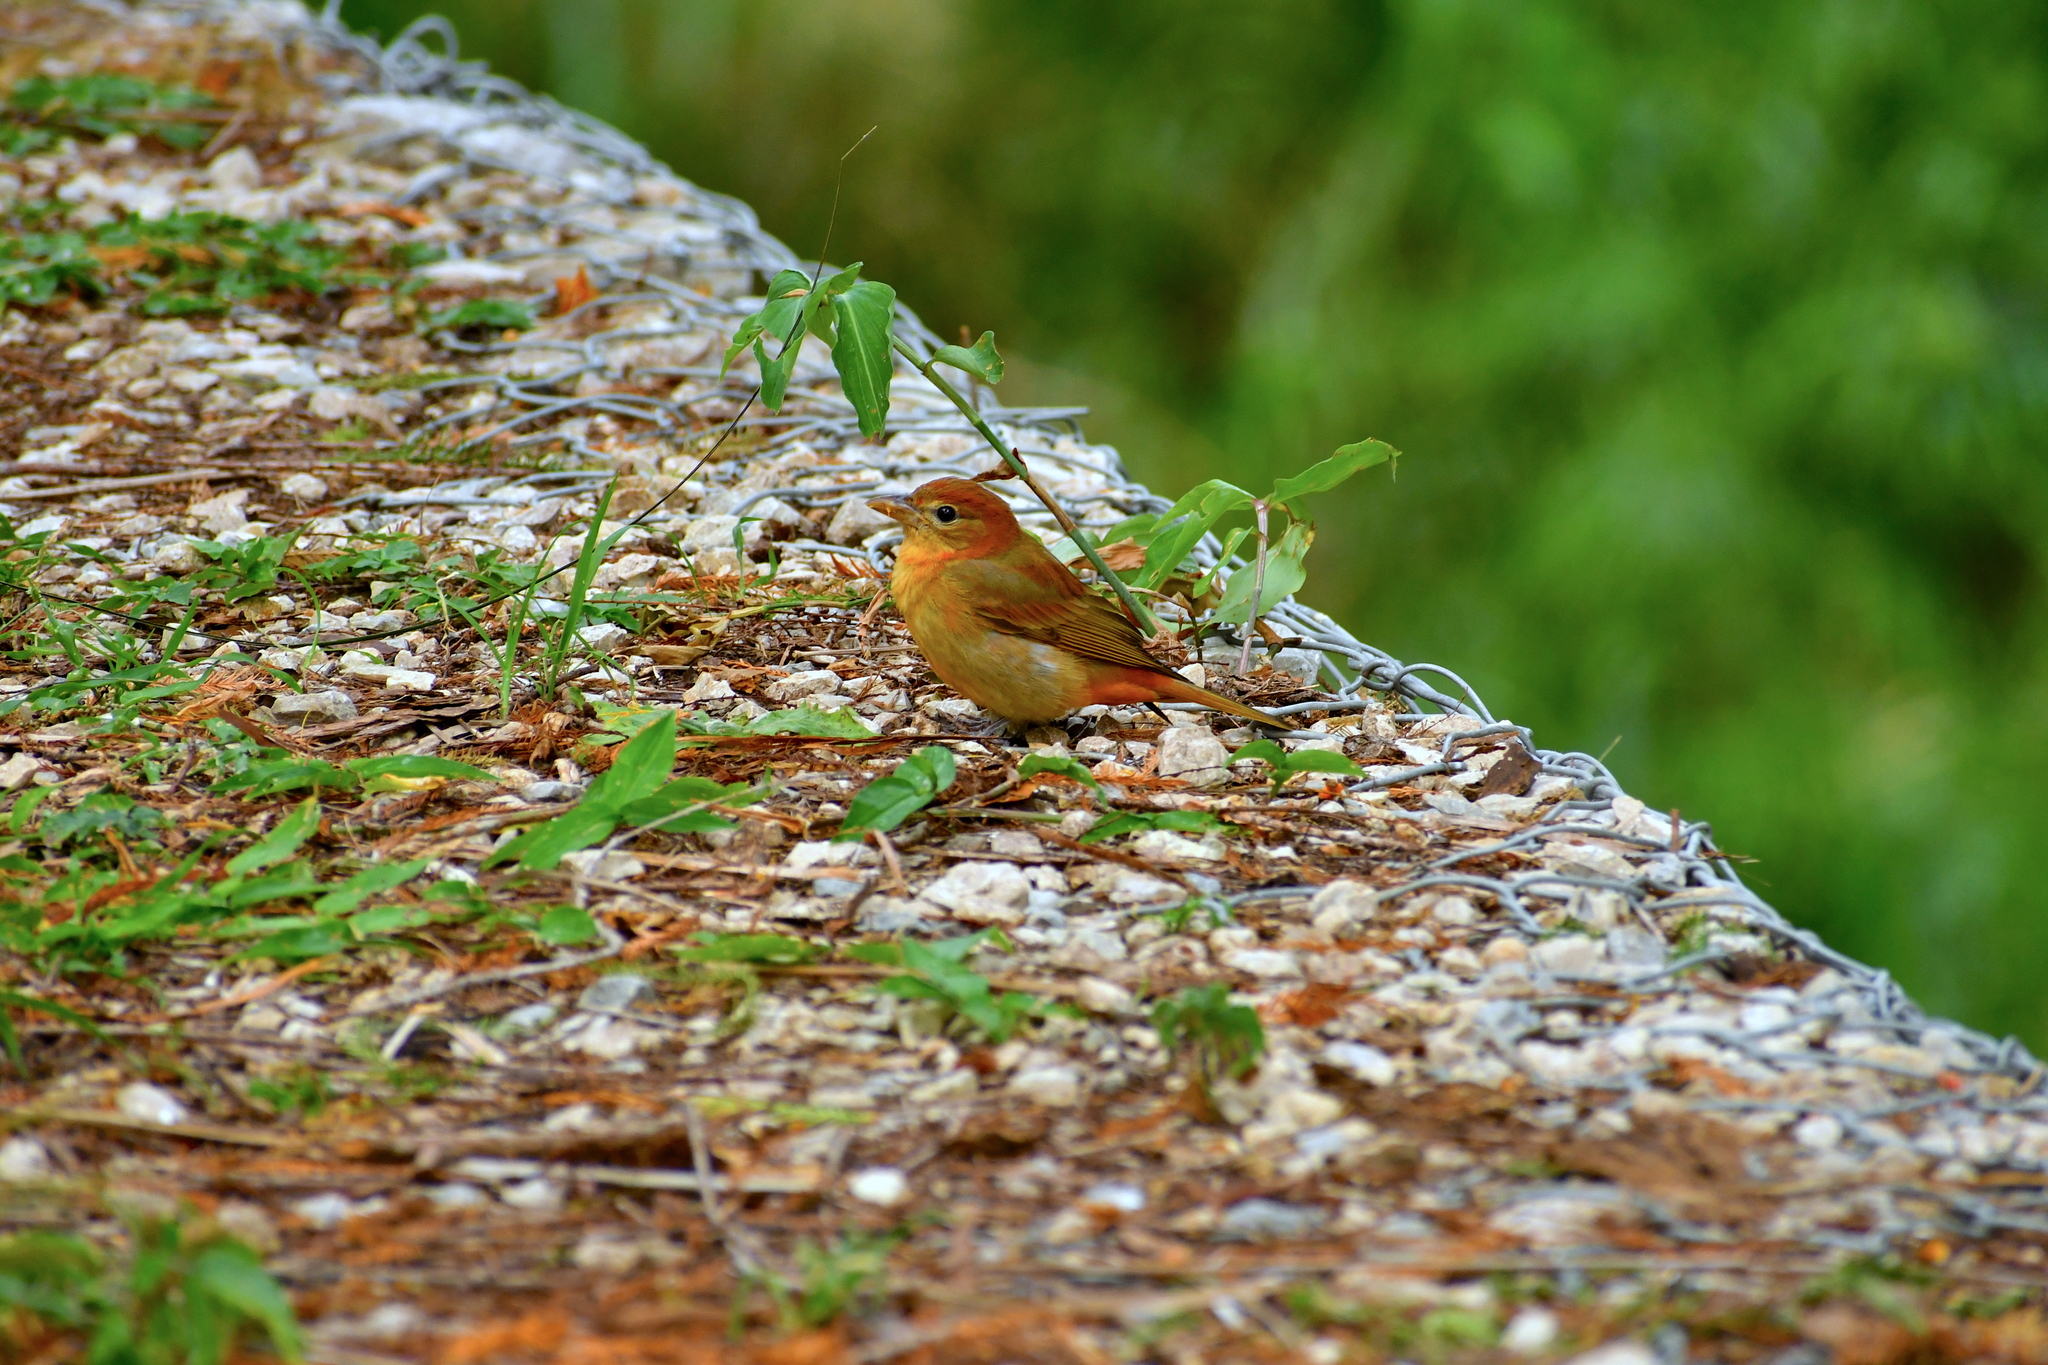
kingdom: Animalia
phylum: Chordata
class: Aves
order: Passeriformes
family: Cardinalidae
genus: Piranga
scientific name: Piranga rubra
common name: Summer tanager
